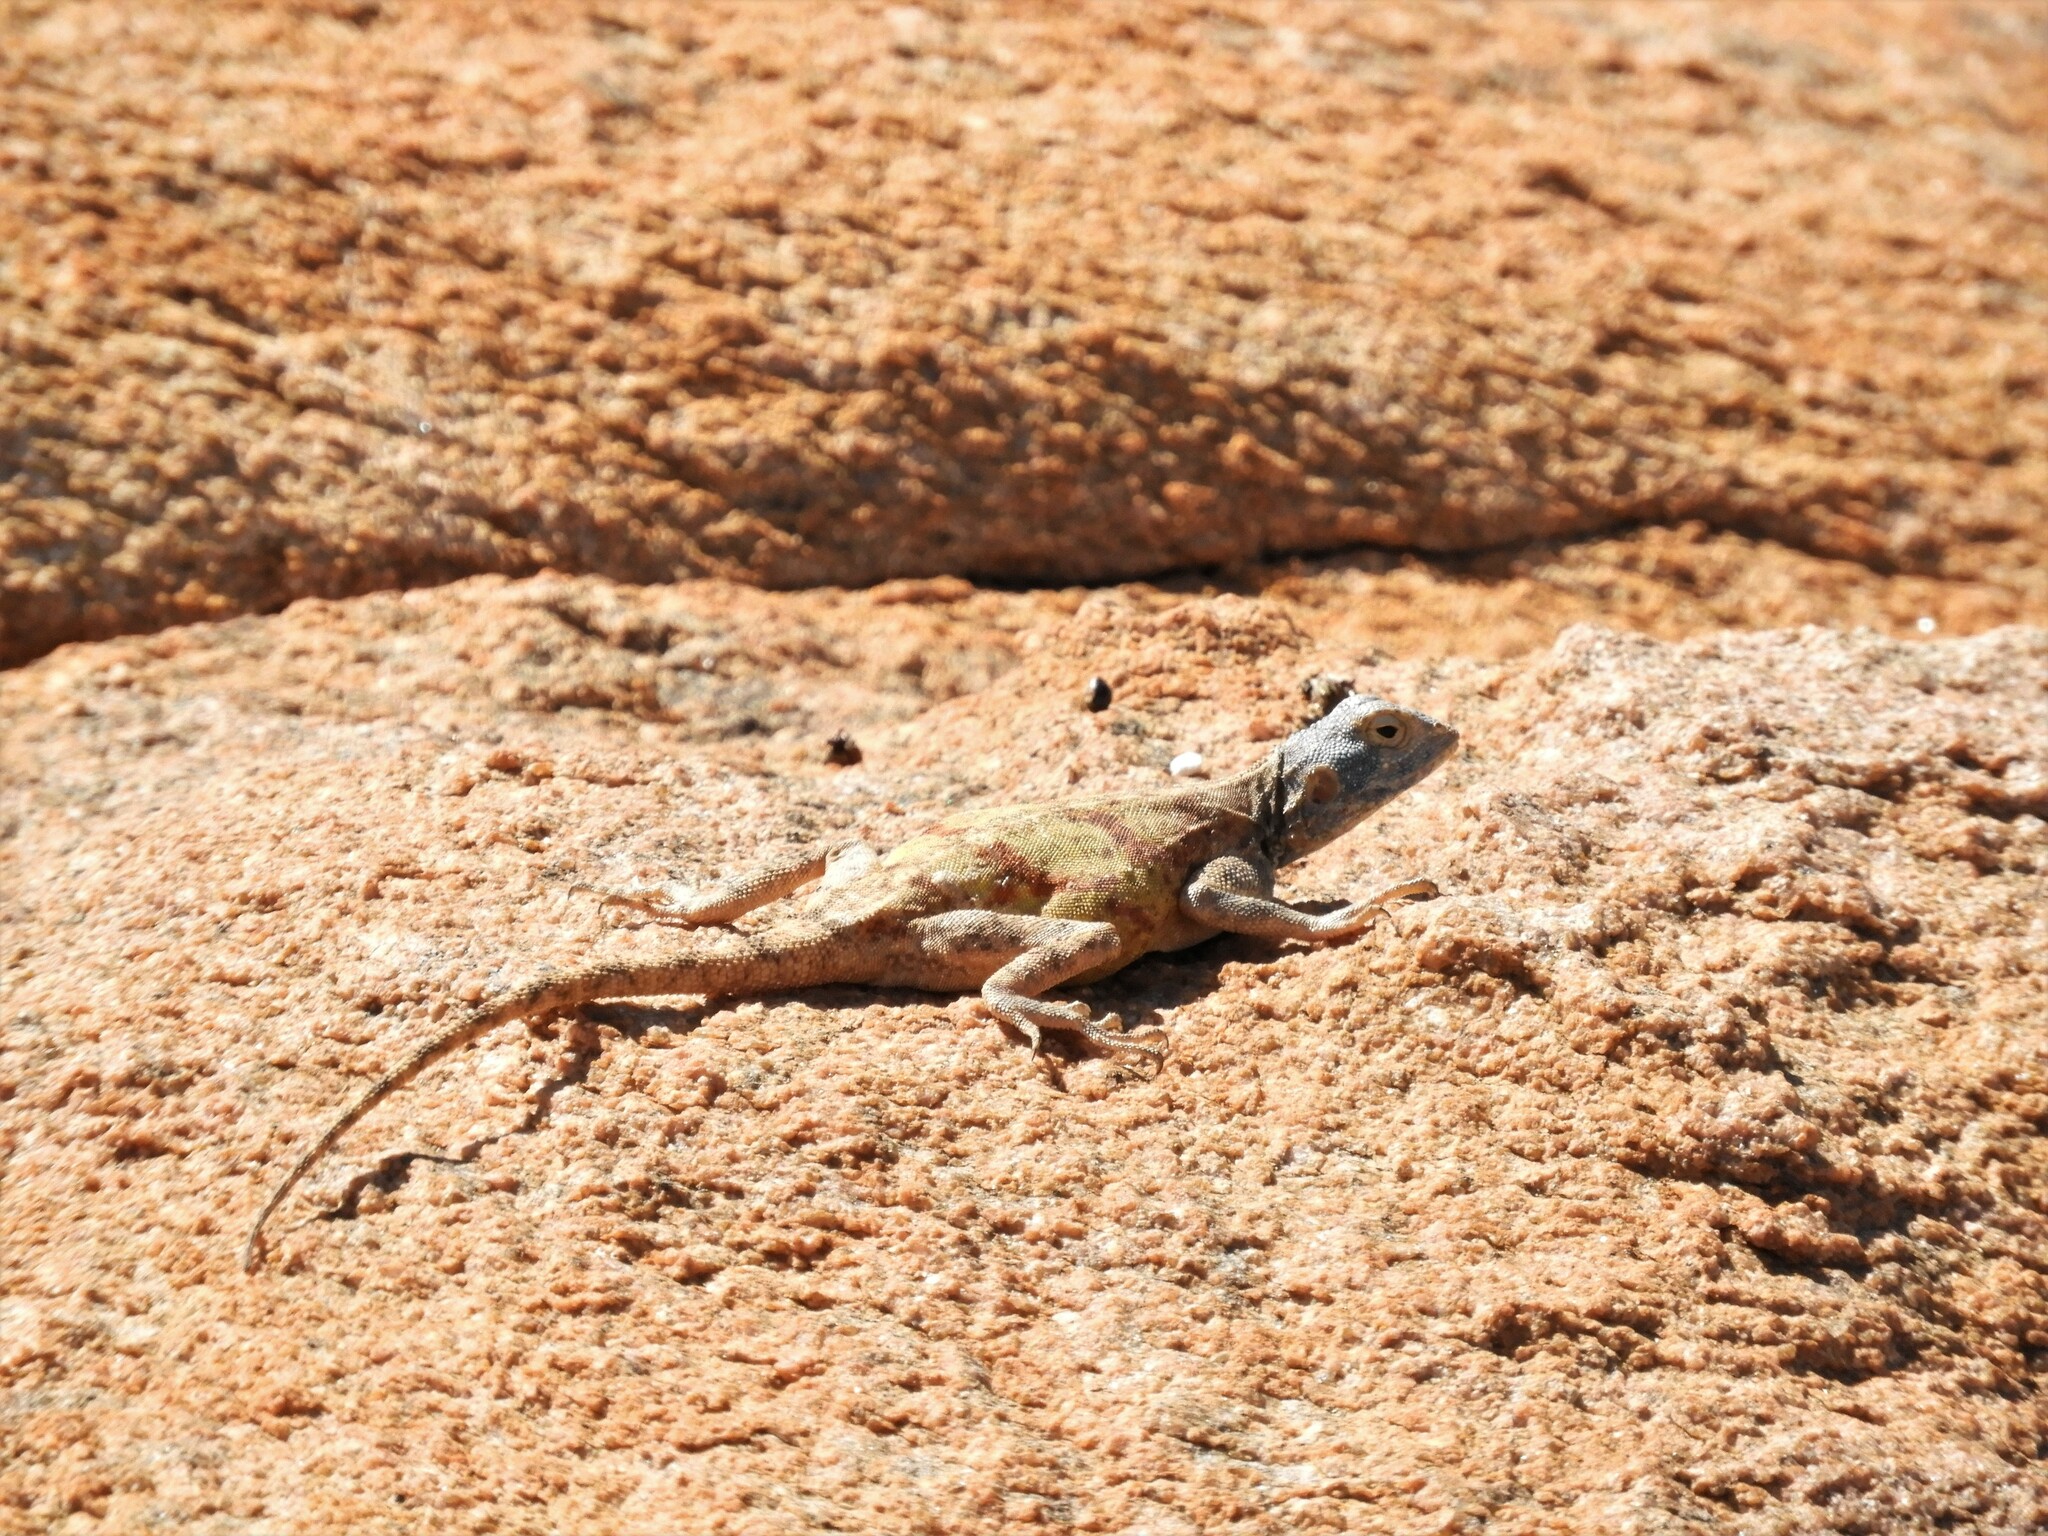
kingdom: Animalia
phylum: Chordata
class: Squamata
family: Agamidae
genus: Agama
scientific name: Agama atra
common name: Southern african rock agama
